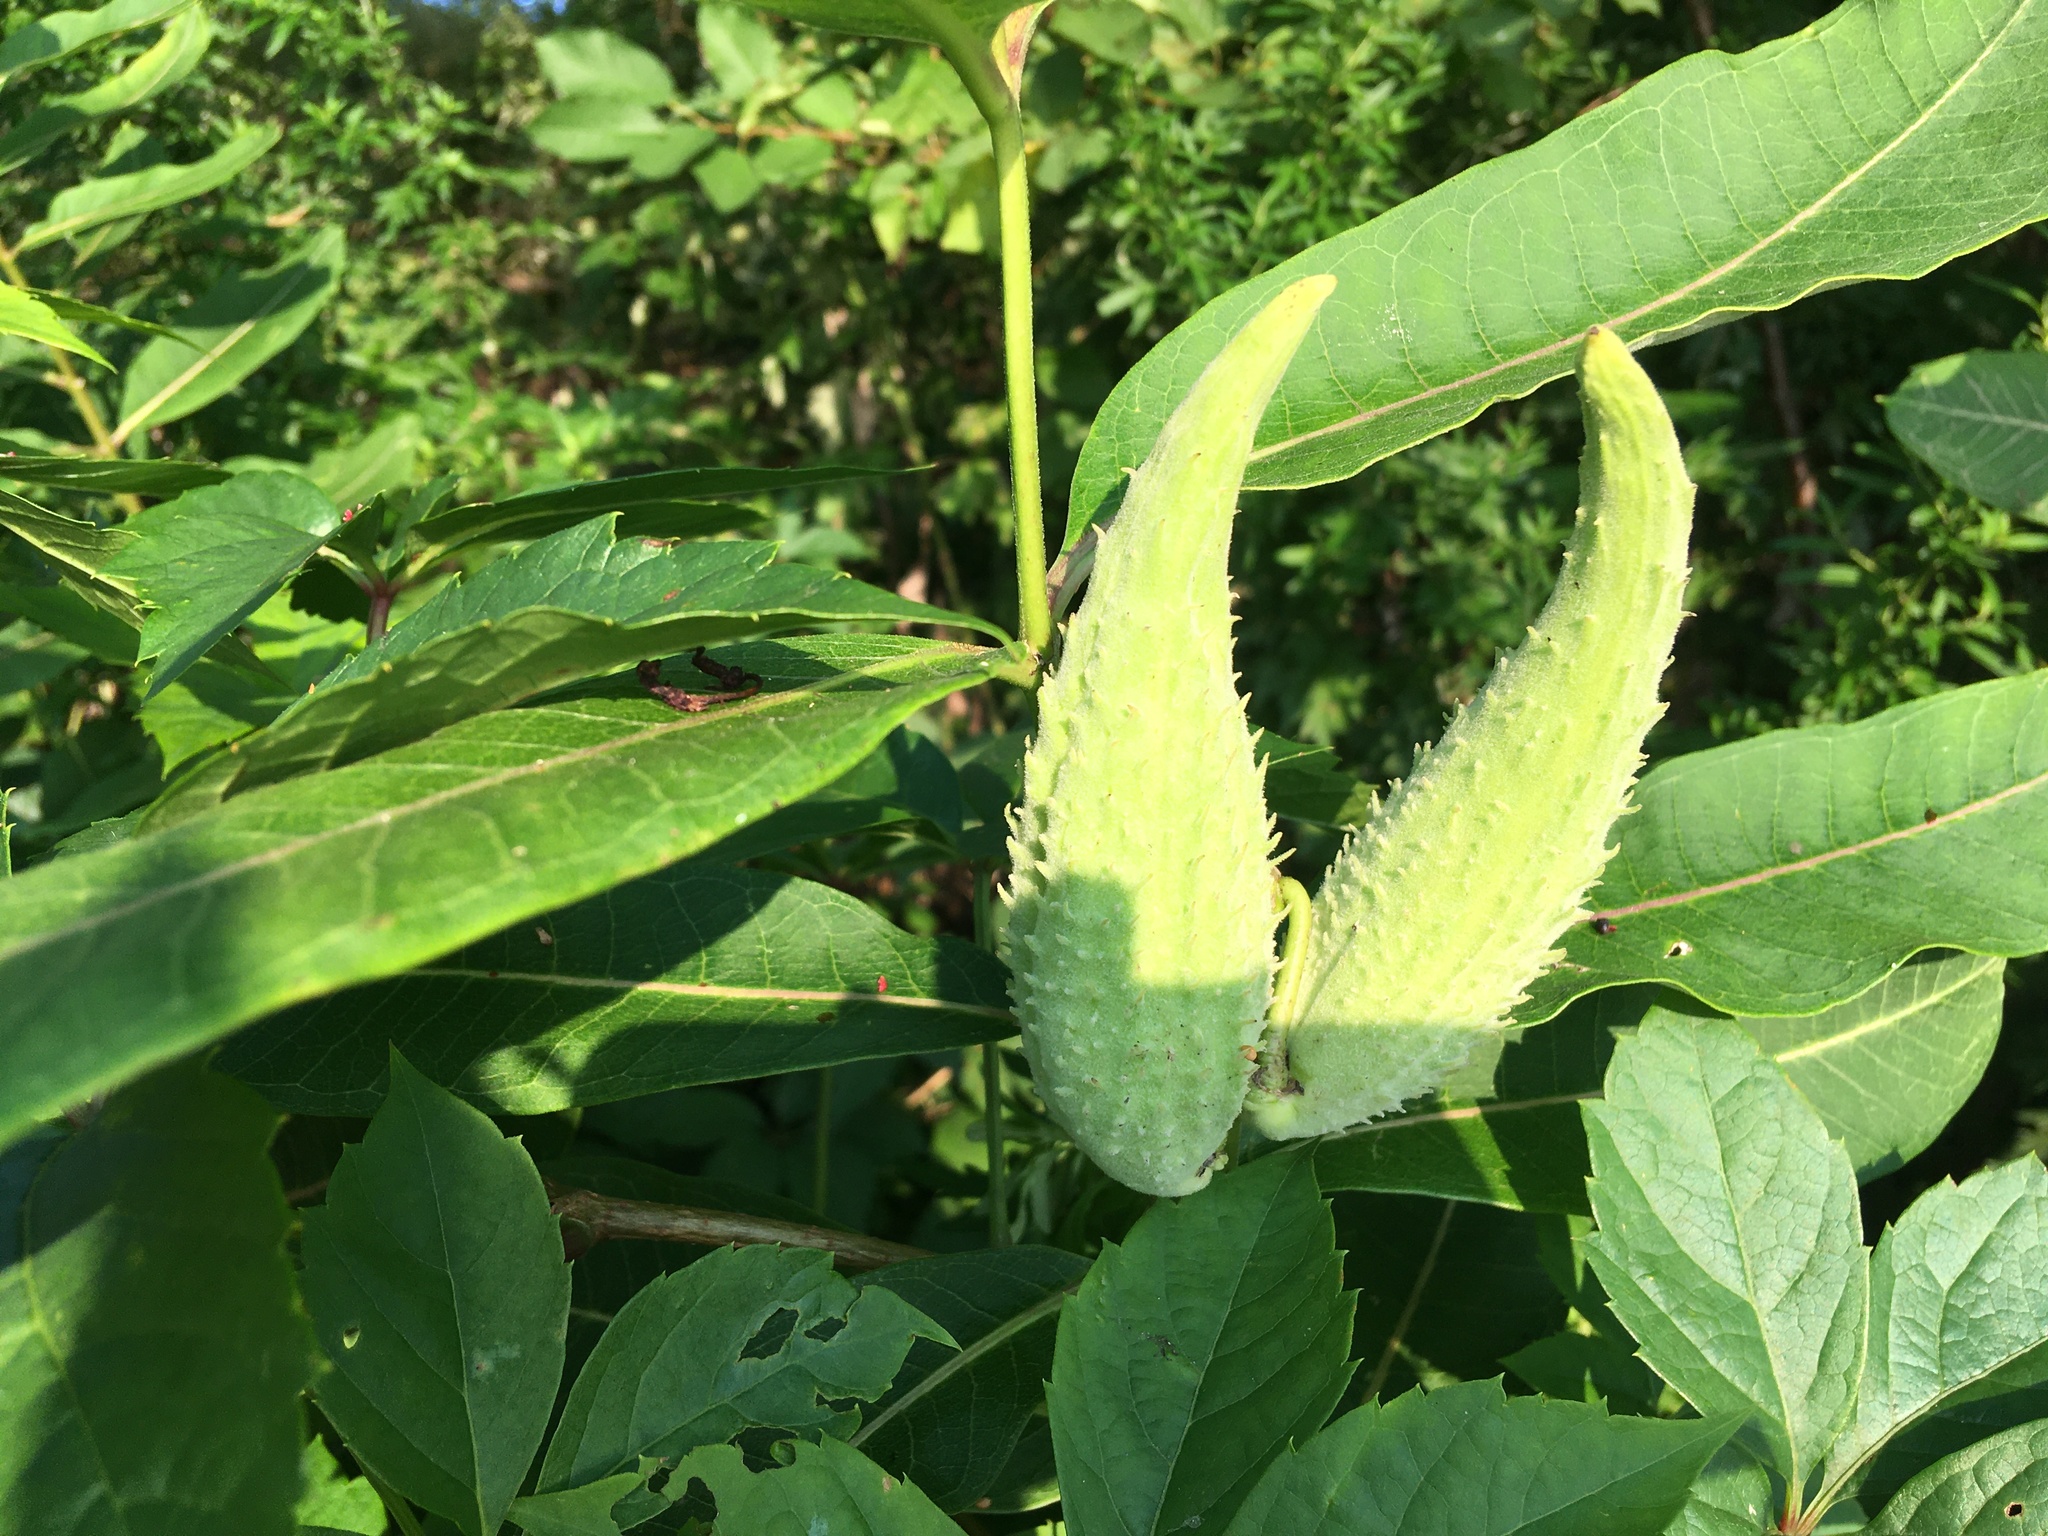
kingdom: Plantae
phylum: Tracheophyta
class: Magnoliopsida
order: Gentianales
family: Apocynaceae
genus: Asclepias
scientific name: Asclepias syriaca
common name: Common milkweed
